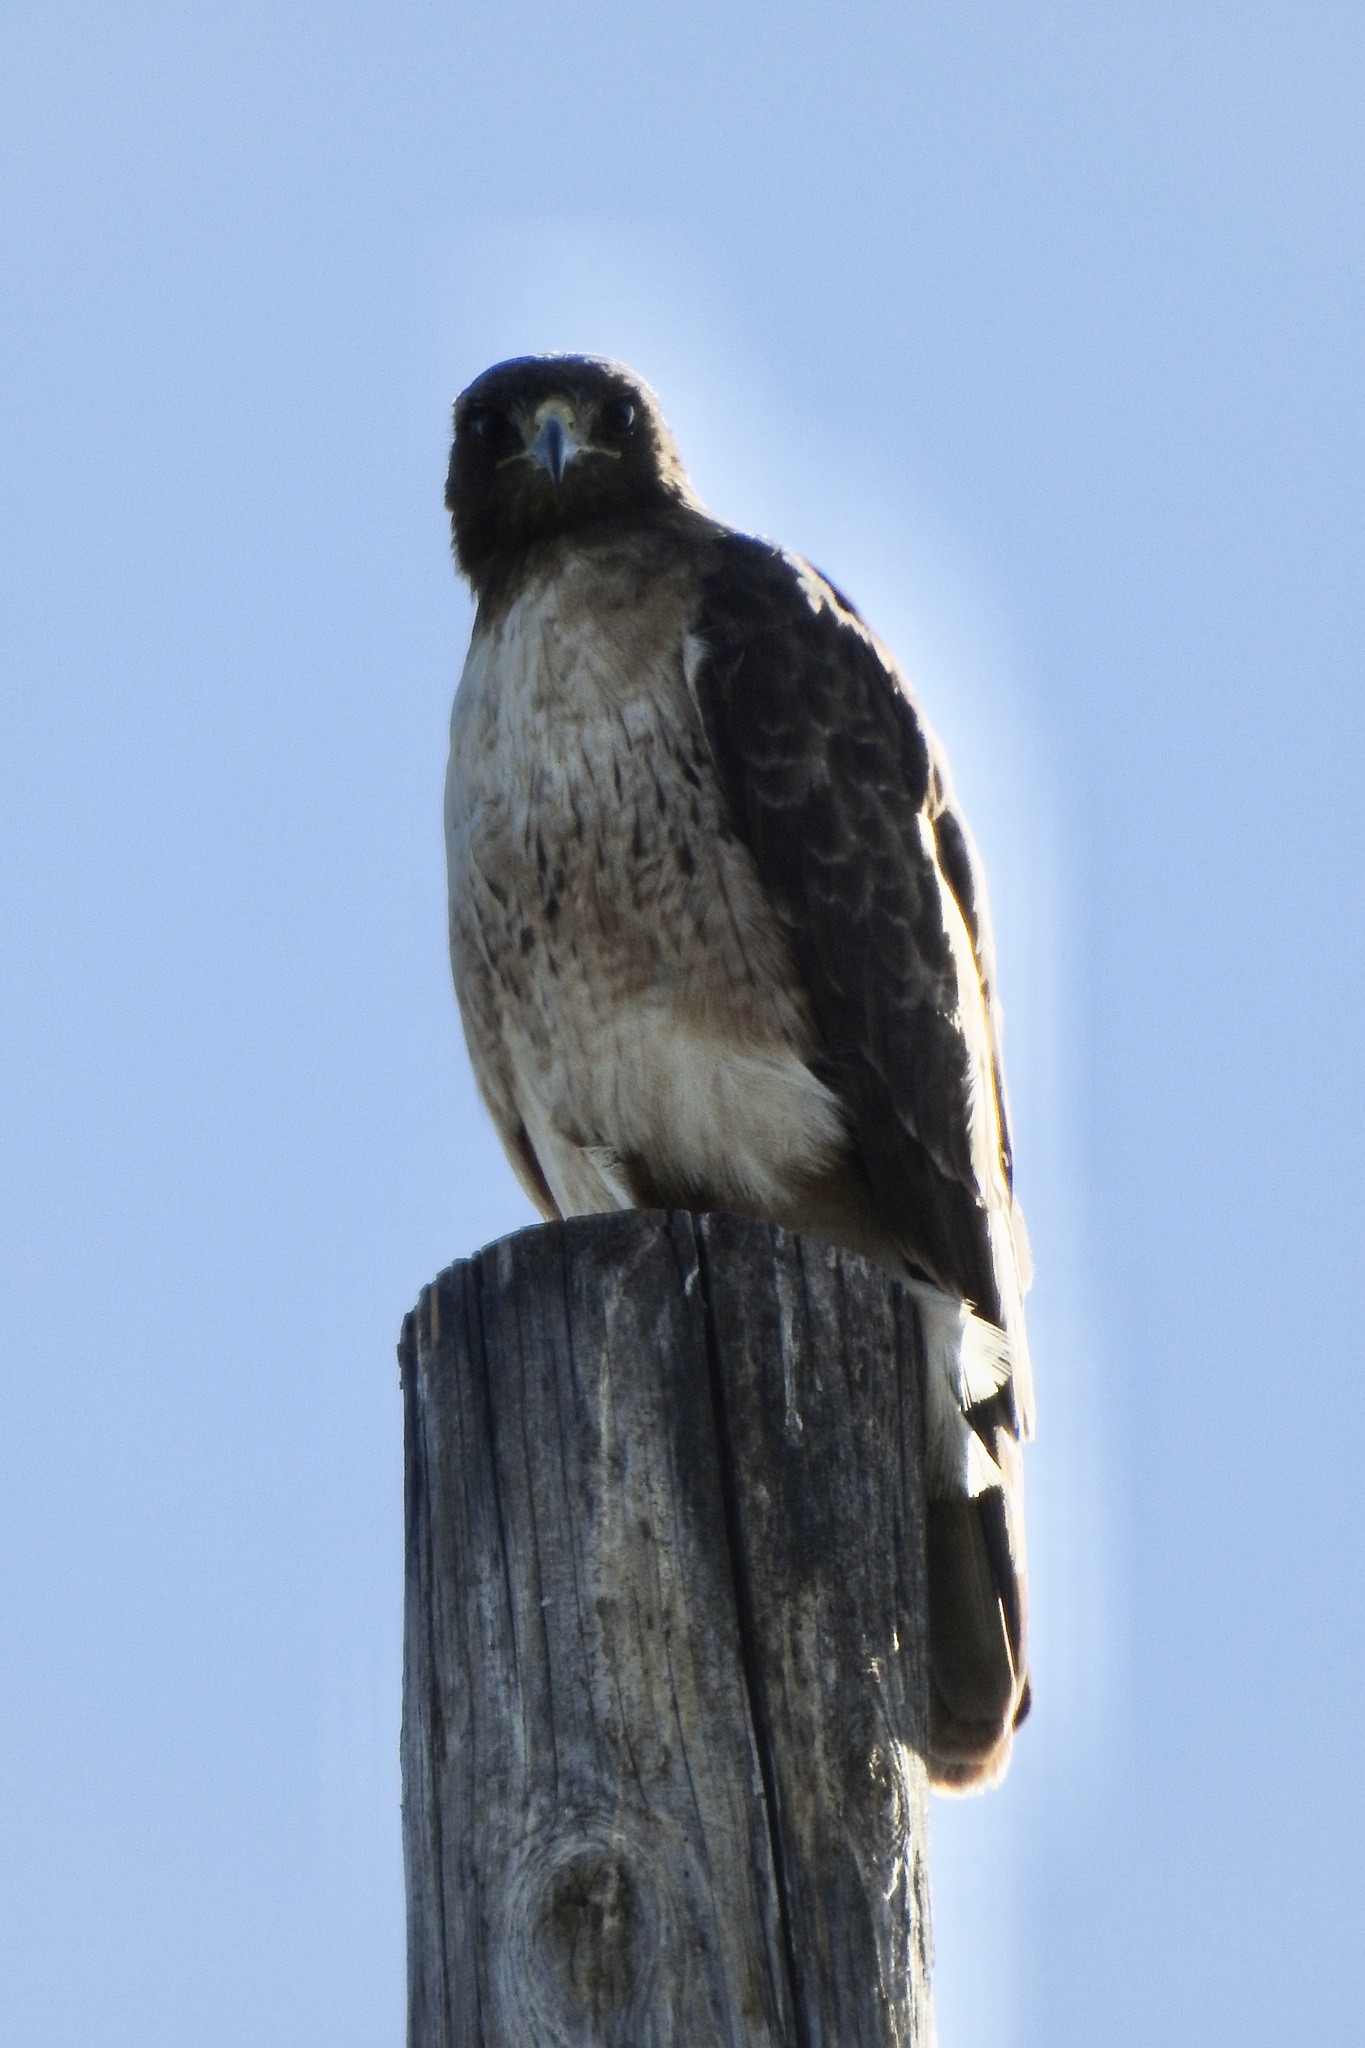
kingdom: Animalia
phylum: Chordata
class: Aves
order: Accipitriformes
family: Accipitridae
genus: Buteo
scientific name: Buteo jamaicensis
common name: Red-tailed hawk
